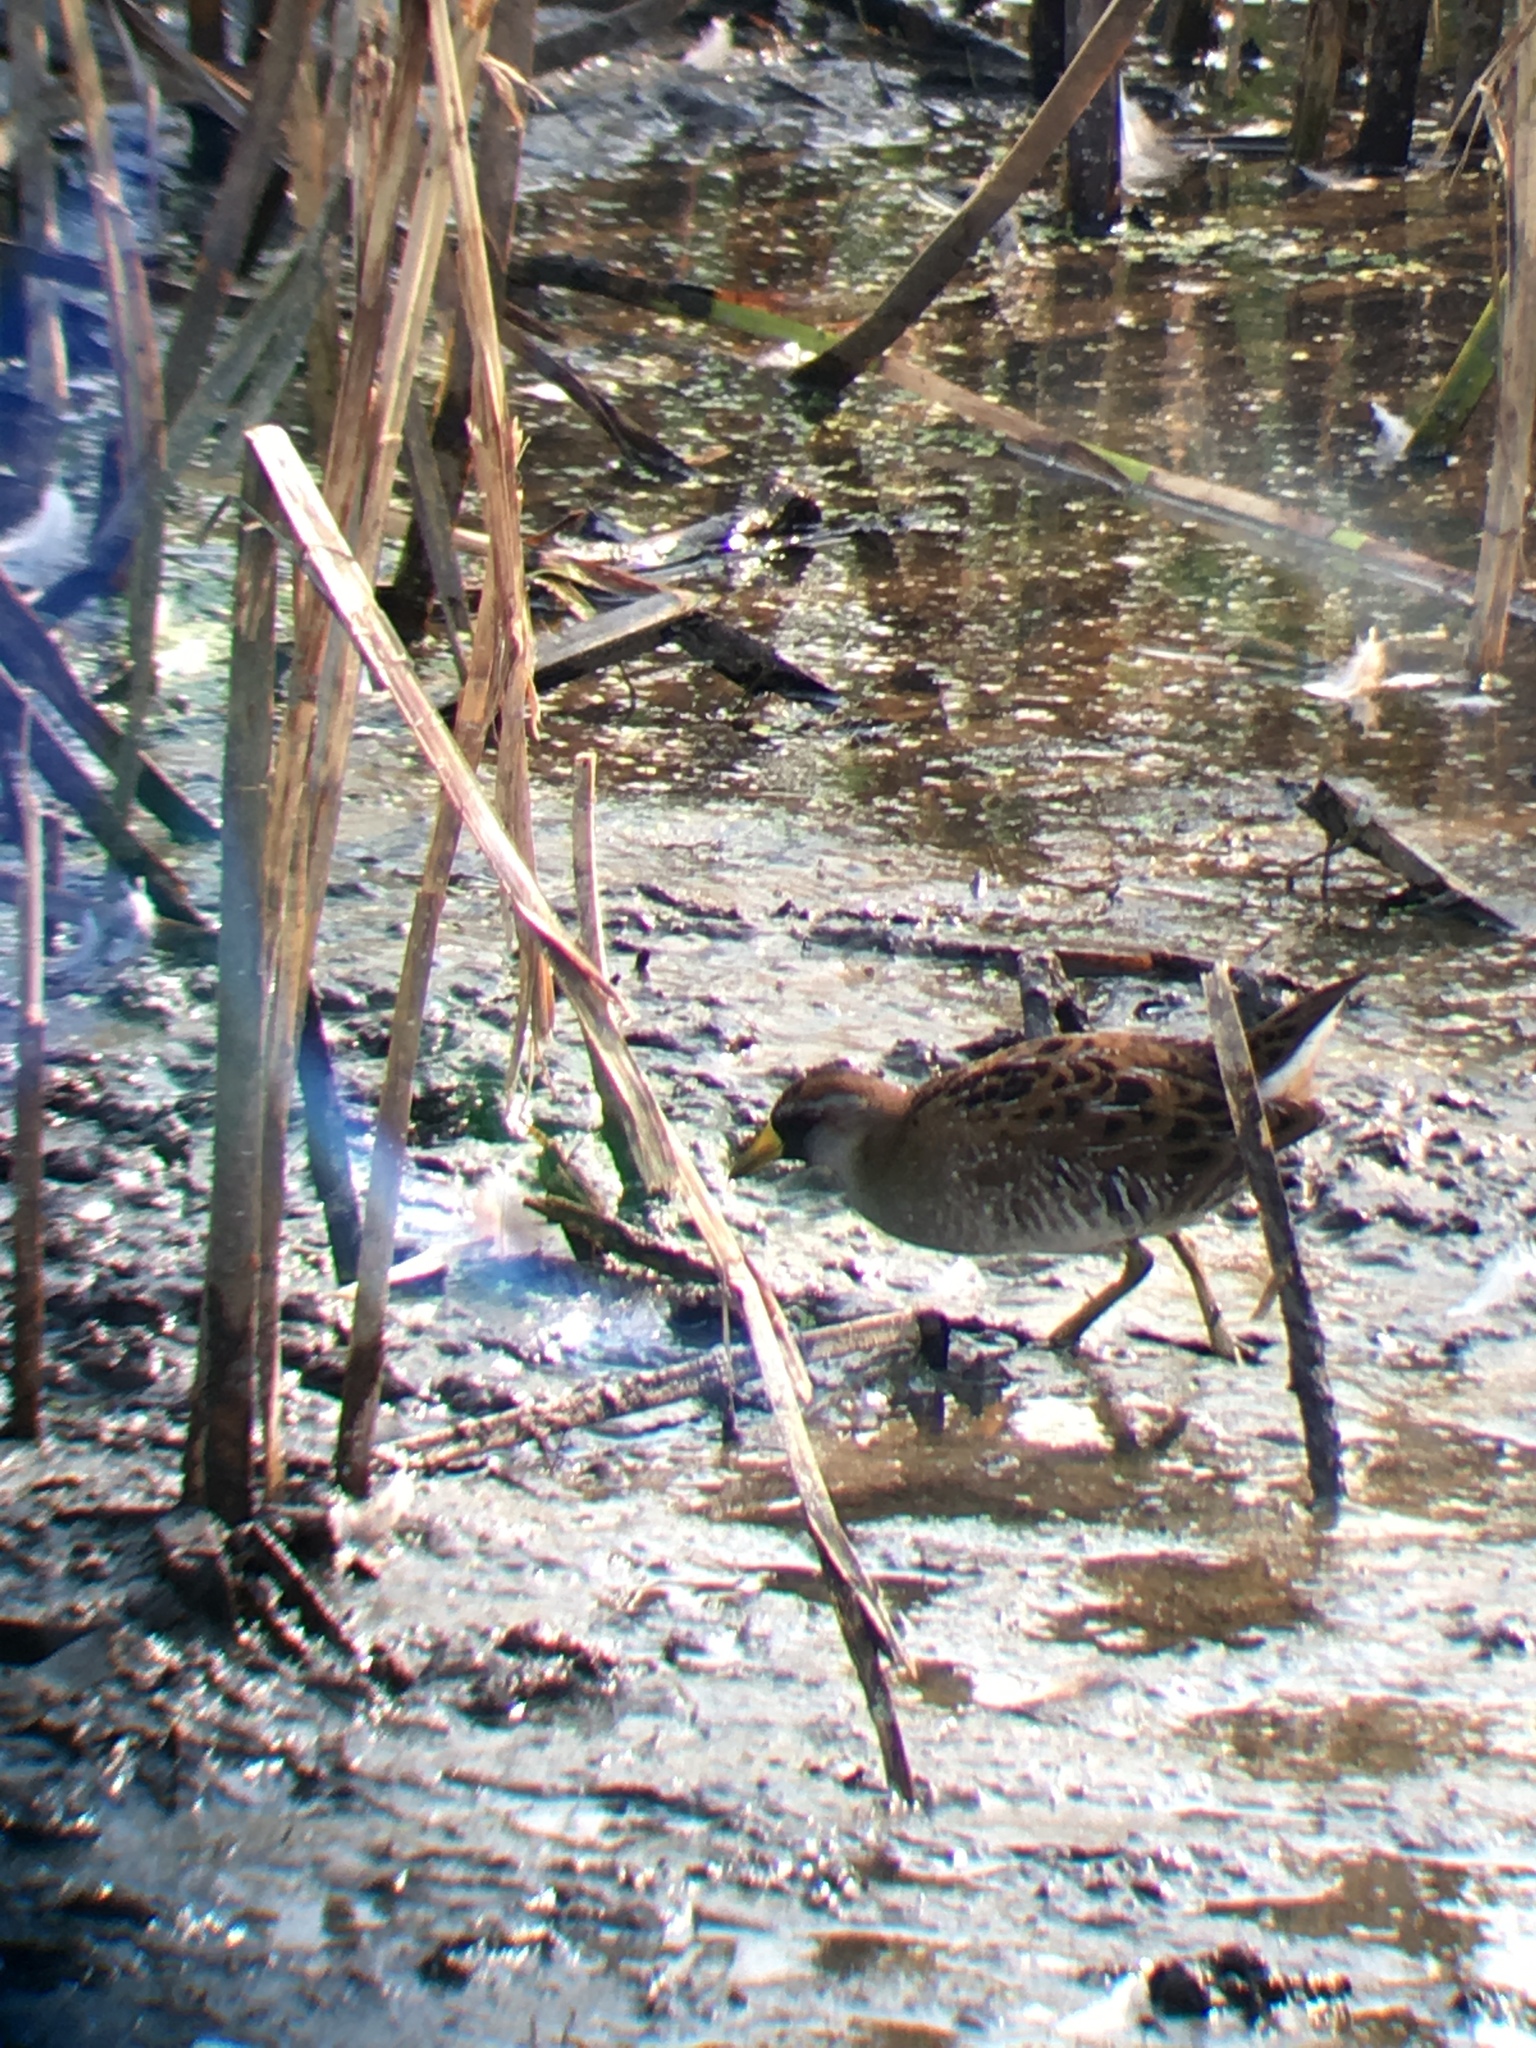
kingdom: Animalia
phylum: Chordata
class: Aves
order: Gruiformes
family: Rallidae
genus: Porzana
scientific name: Porzana carolina
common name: Sora
